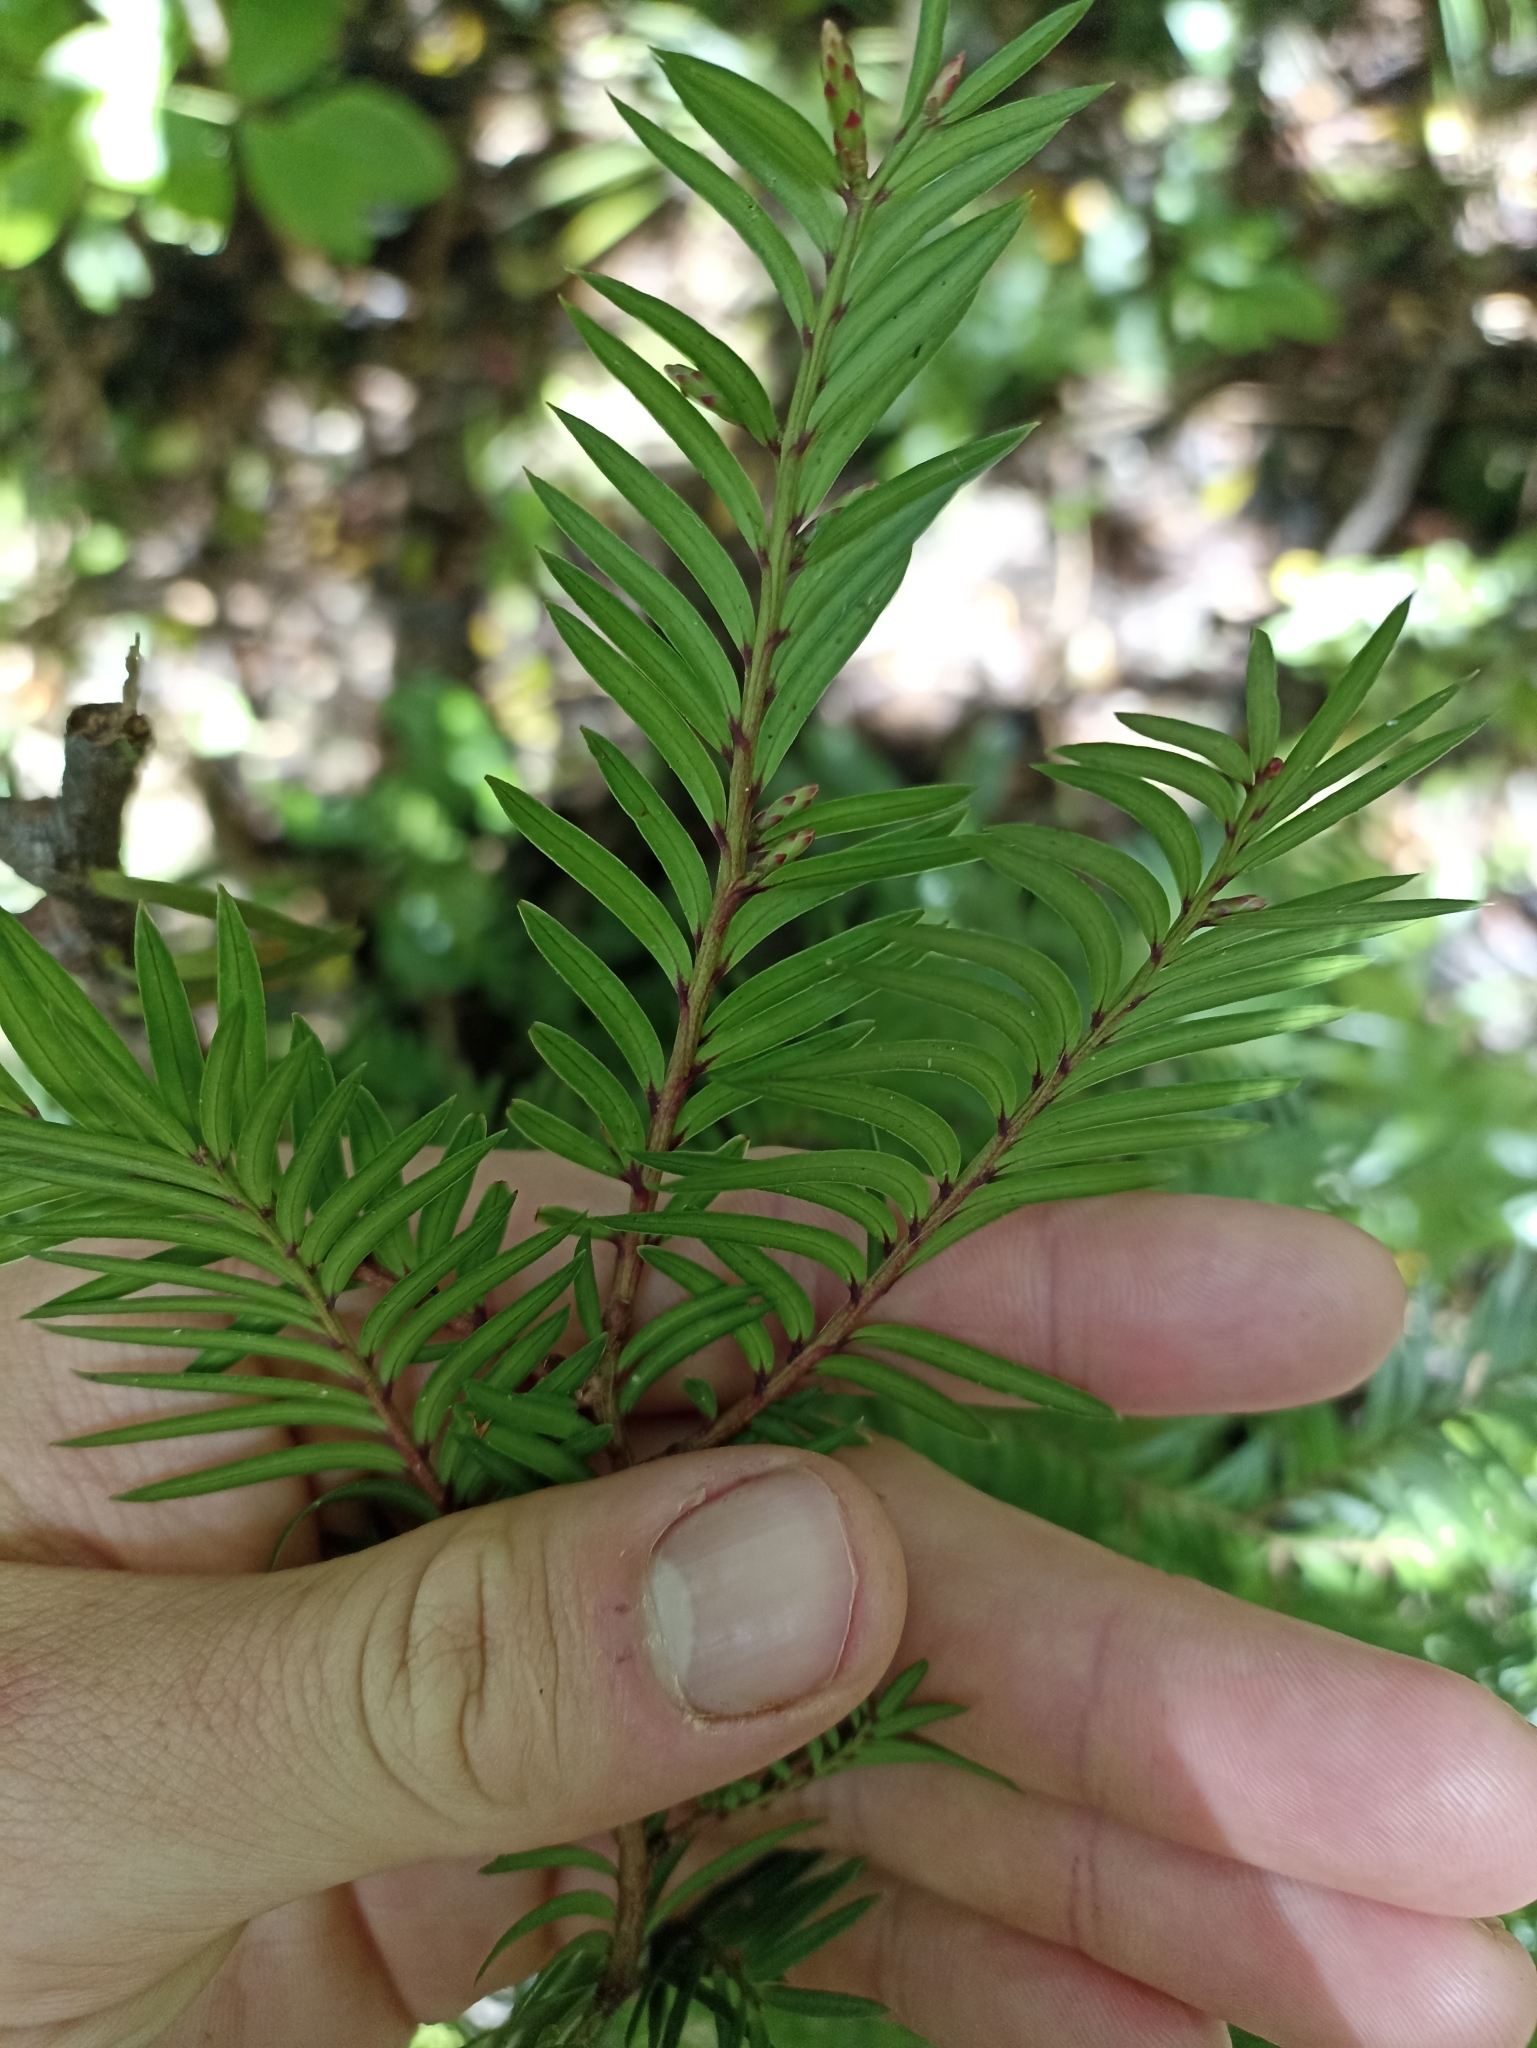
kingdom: Plantae
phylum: Tracheophyta
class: Pinopsida
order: Pinales
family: Podocarpaceae
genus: Prumnopitys
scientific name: Prumnopitys ferruginea
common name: Brown pine
